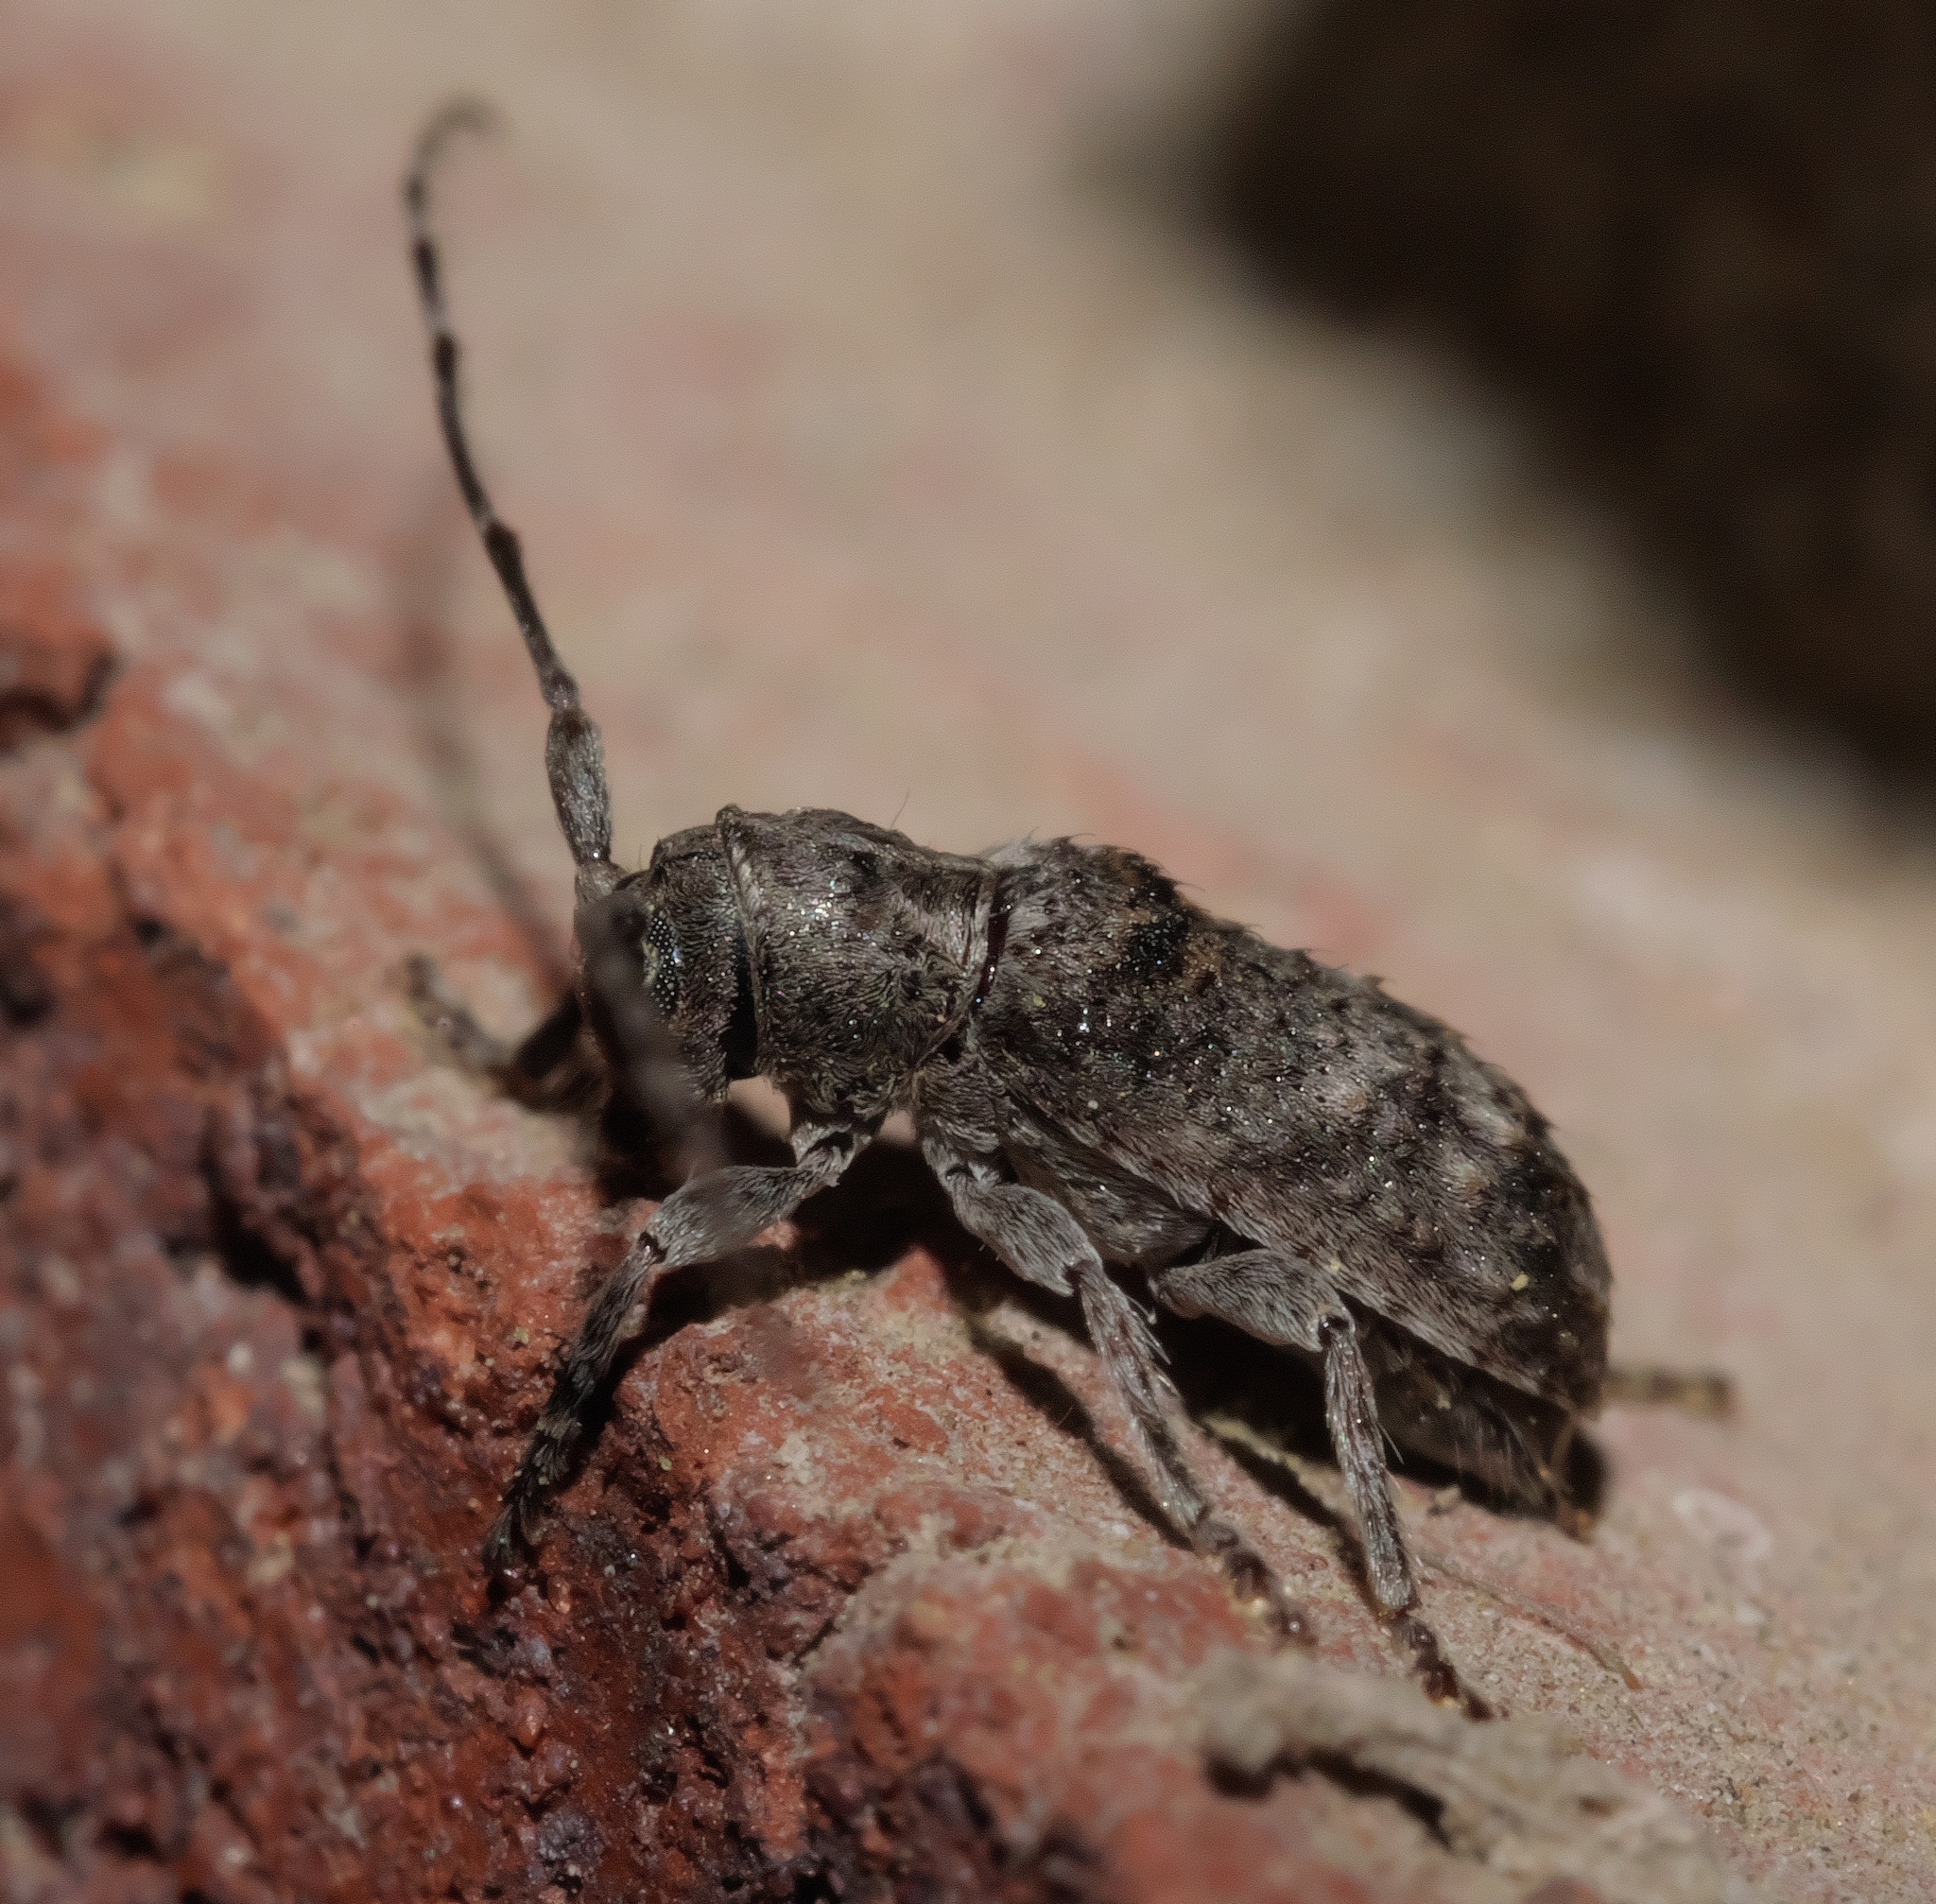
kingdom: Animalia
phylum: Arthropoda
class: Insecta
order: Coleoptera
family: Cerambycidae
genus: Ecyrus
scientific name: Ecyrus dasycerus
